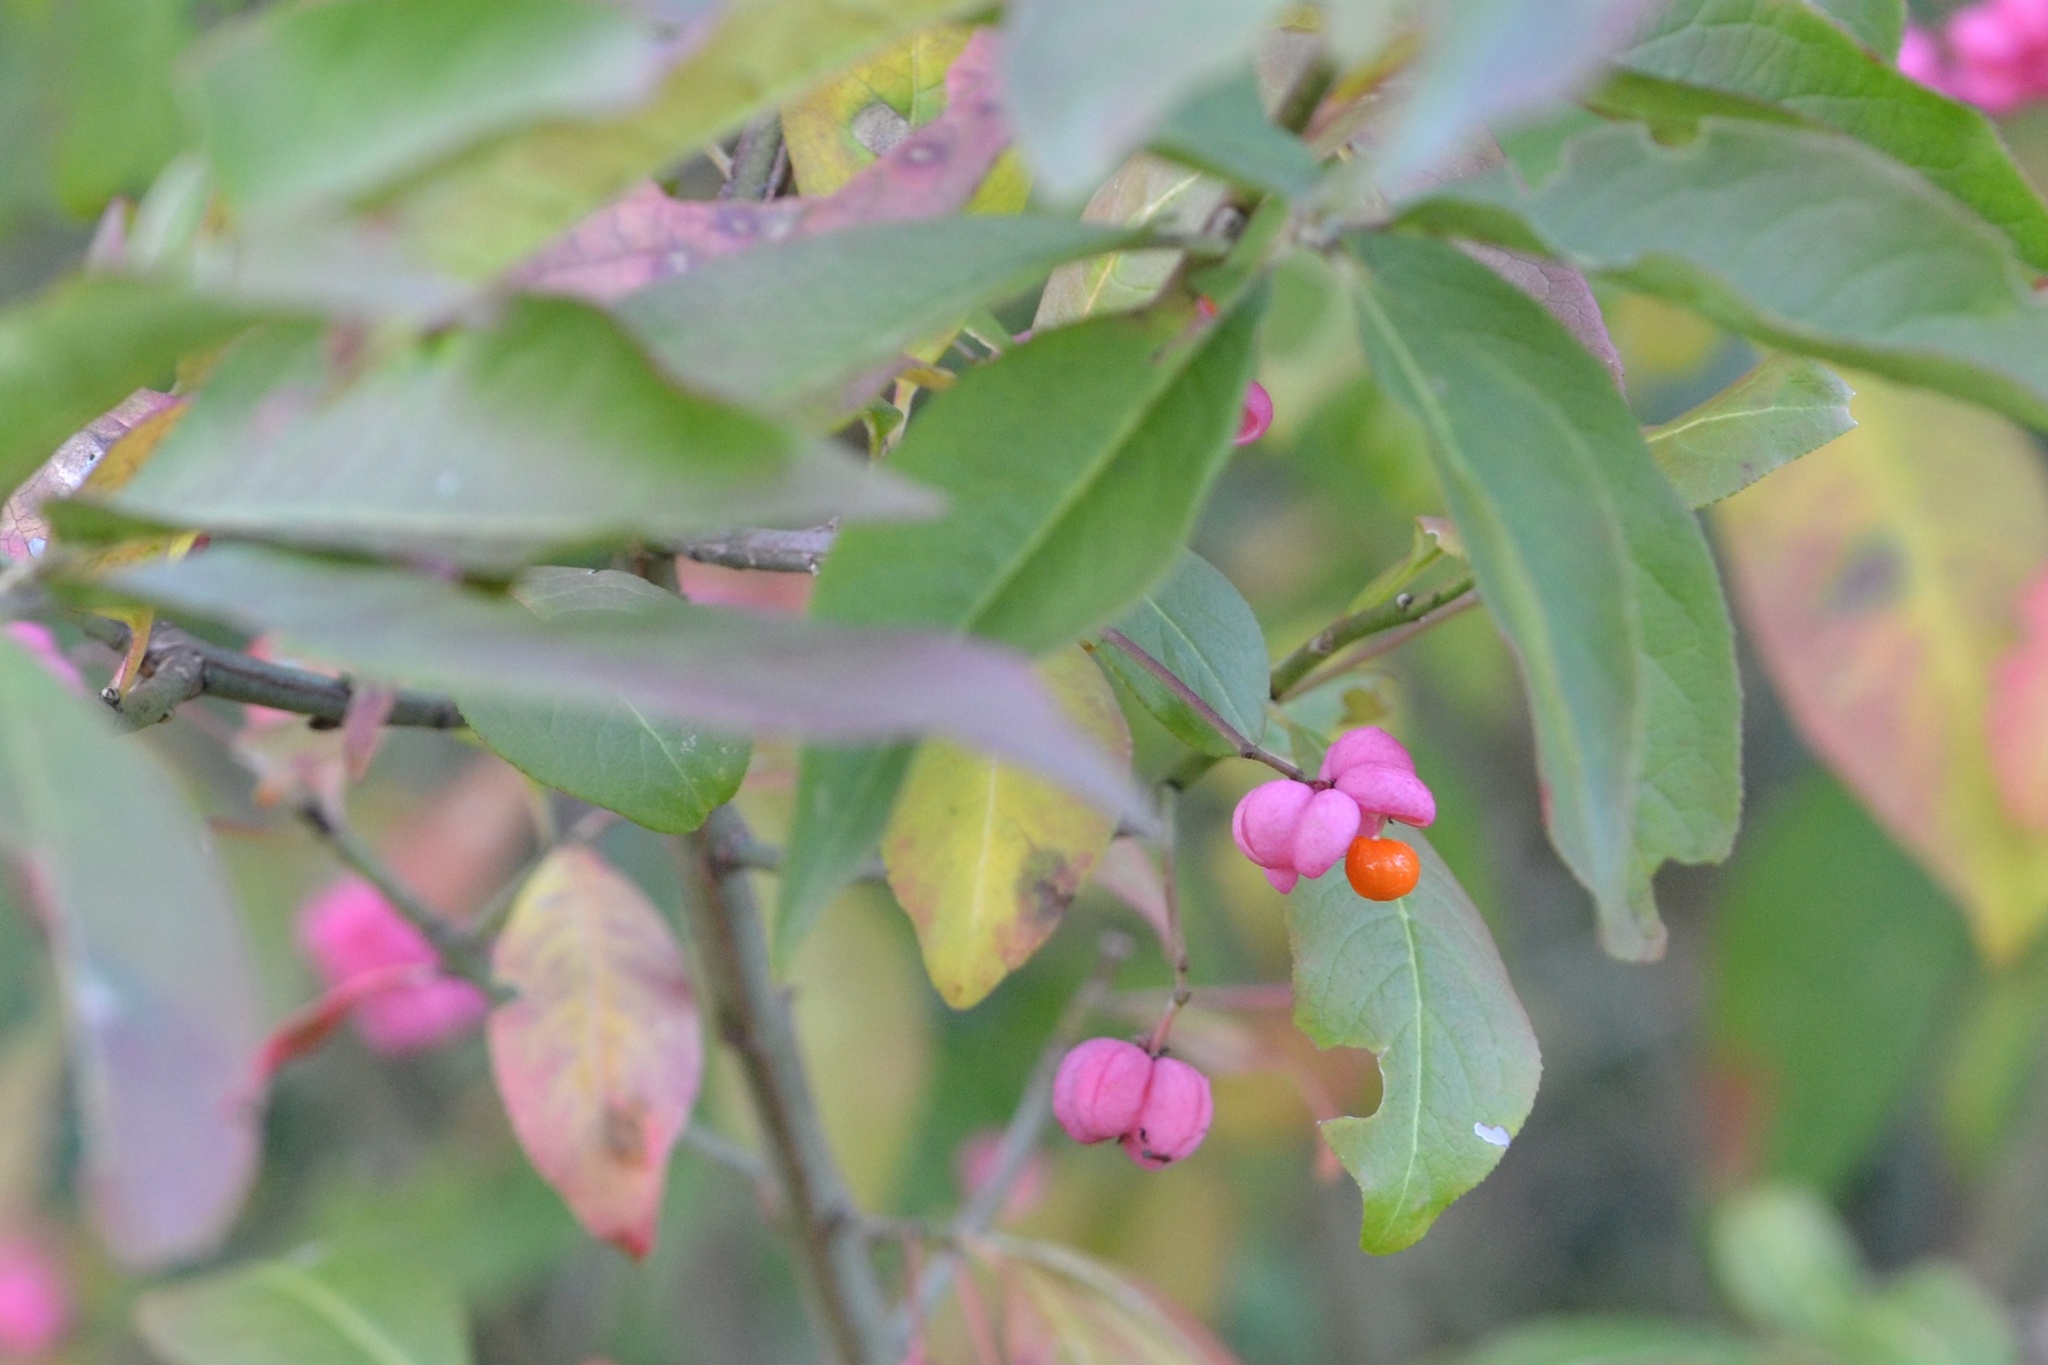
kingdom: Plantae
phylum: Tracheophyta
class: Magnoliopsida
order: Celastrales
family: Celastraceae
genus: Euonymus
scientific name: Euonymus europaeus
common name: Spindle
